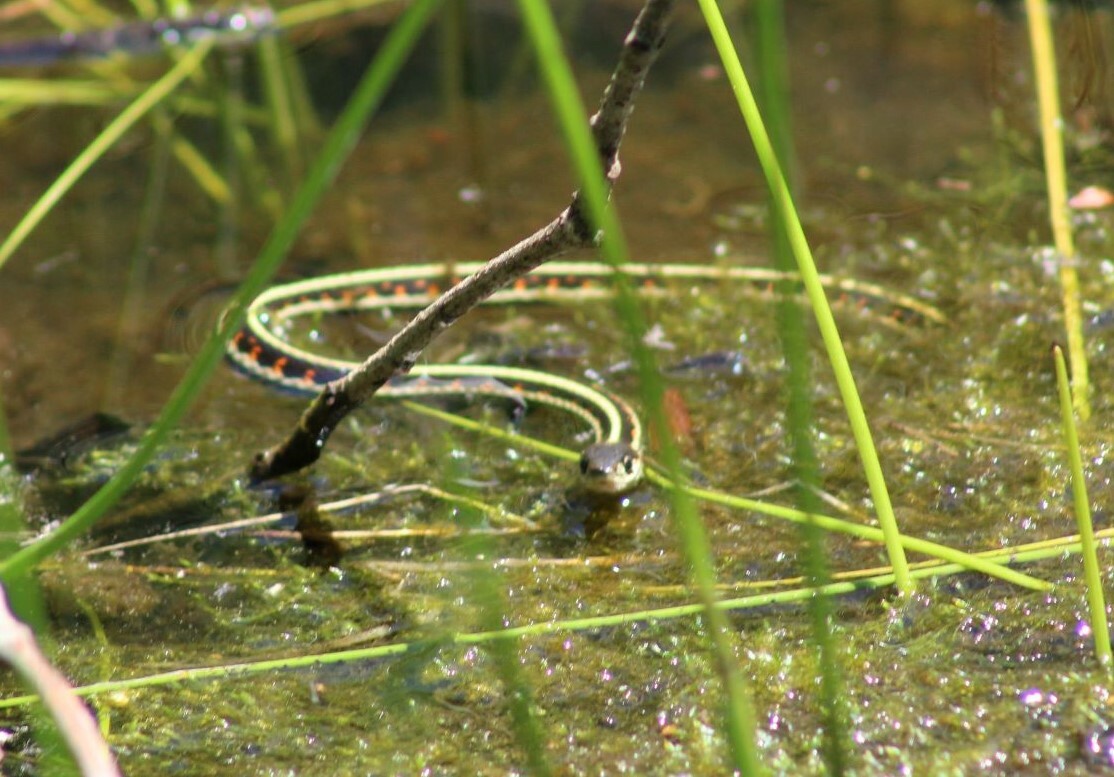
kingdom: Animalia
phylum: Chordata
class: Squamata
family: Colubridae
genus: Thamnophis
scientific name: Thamnophis sirtalis
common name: Common garter snake
